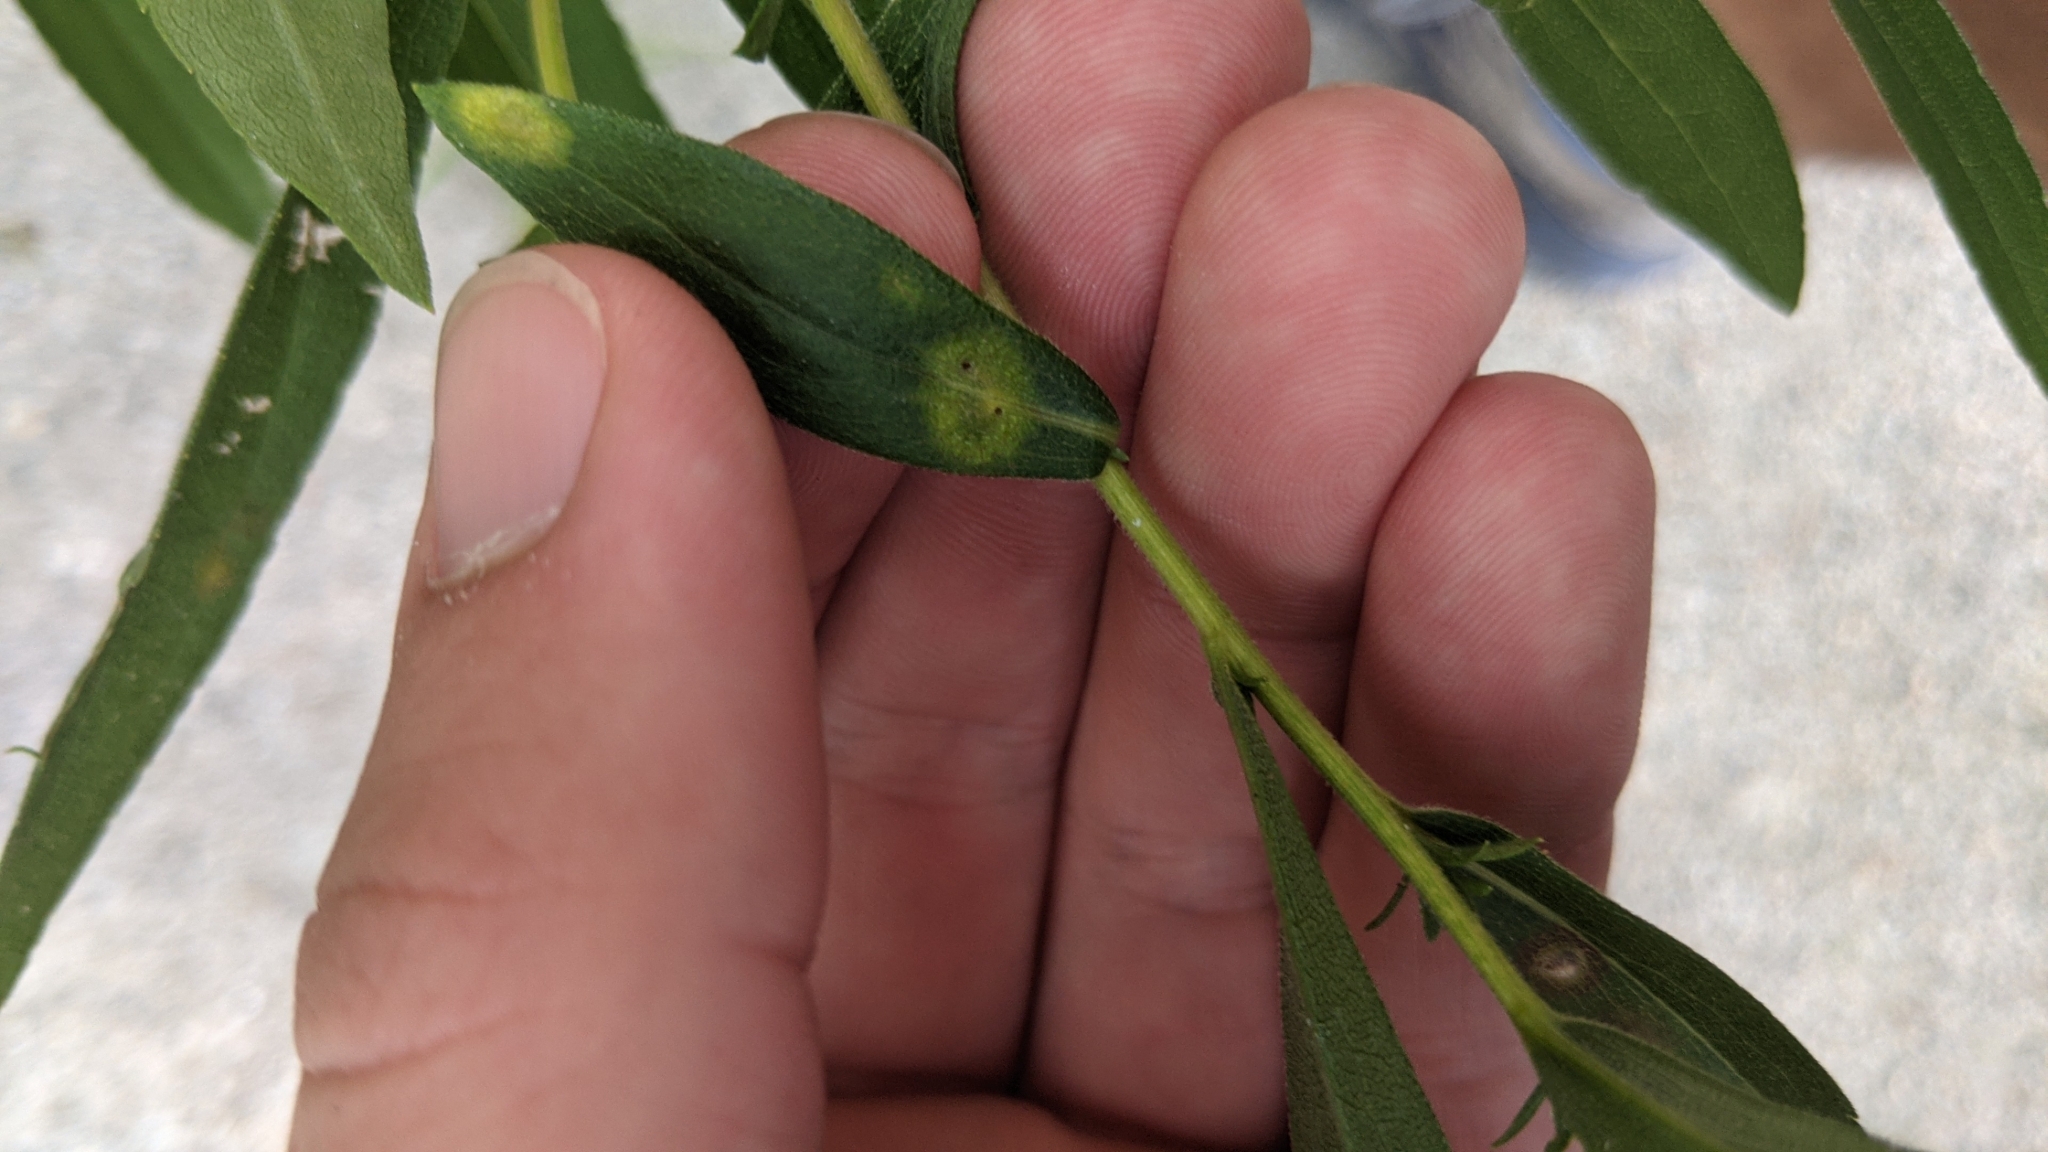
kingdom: Animalia
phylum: Arthropoda
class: Insecta
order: Diptera
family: Cecidomyiidae
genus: Asteromyia
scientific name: Asteromyia carbonifera
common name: Carbonifera goldenrod gall midge
